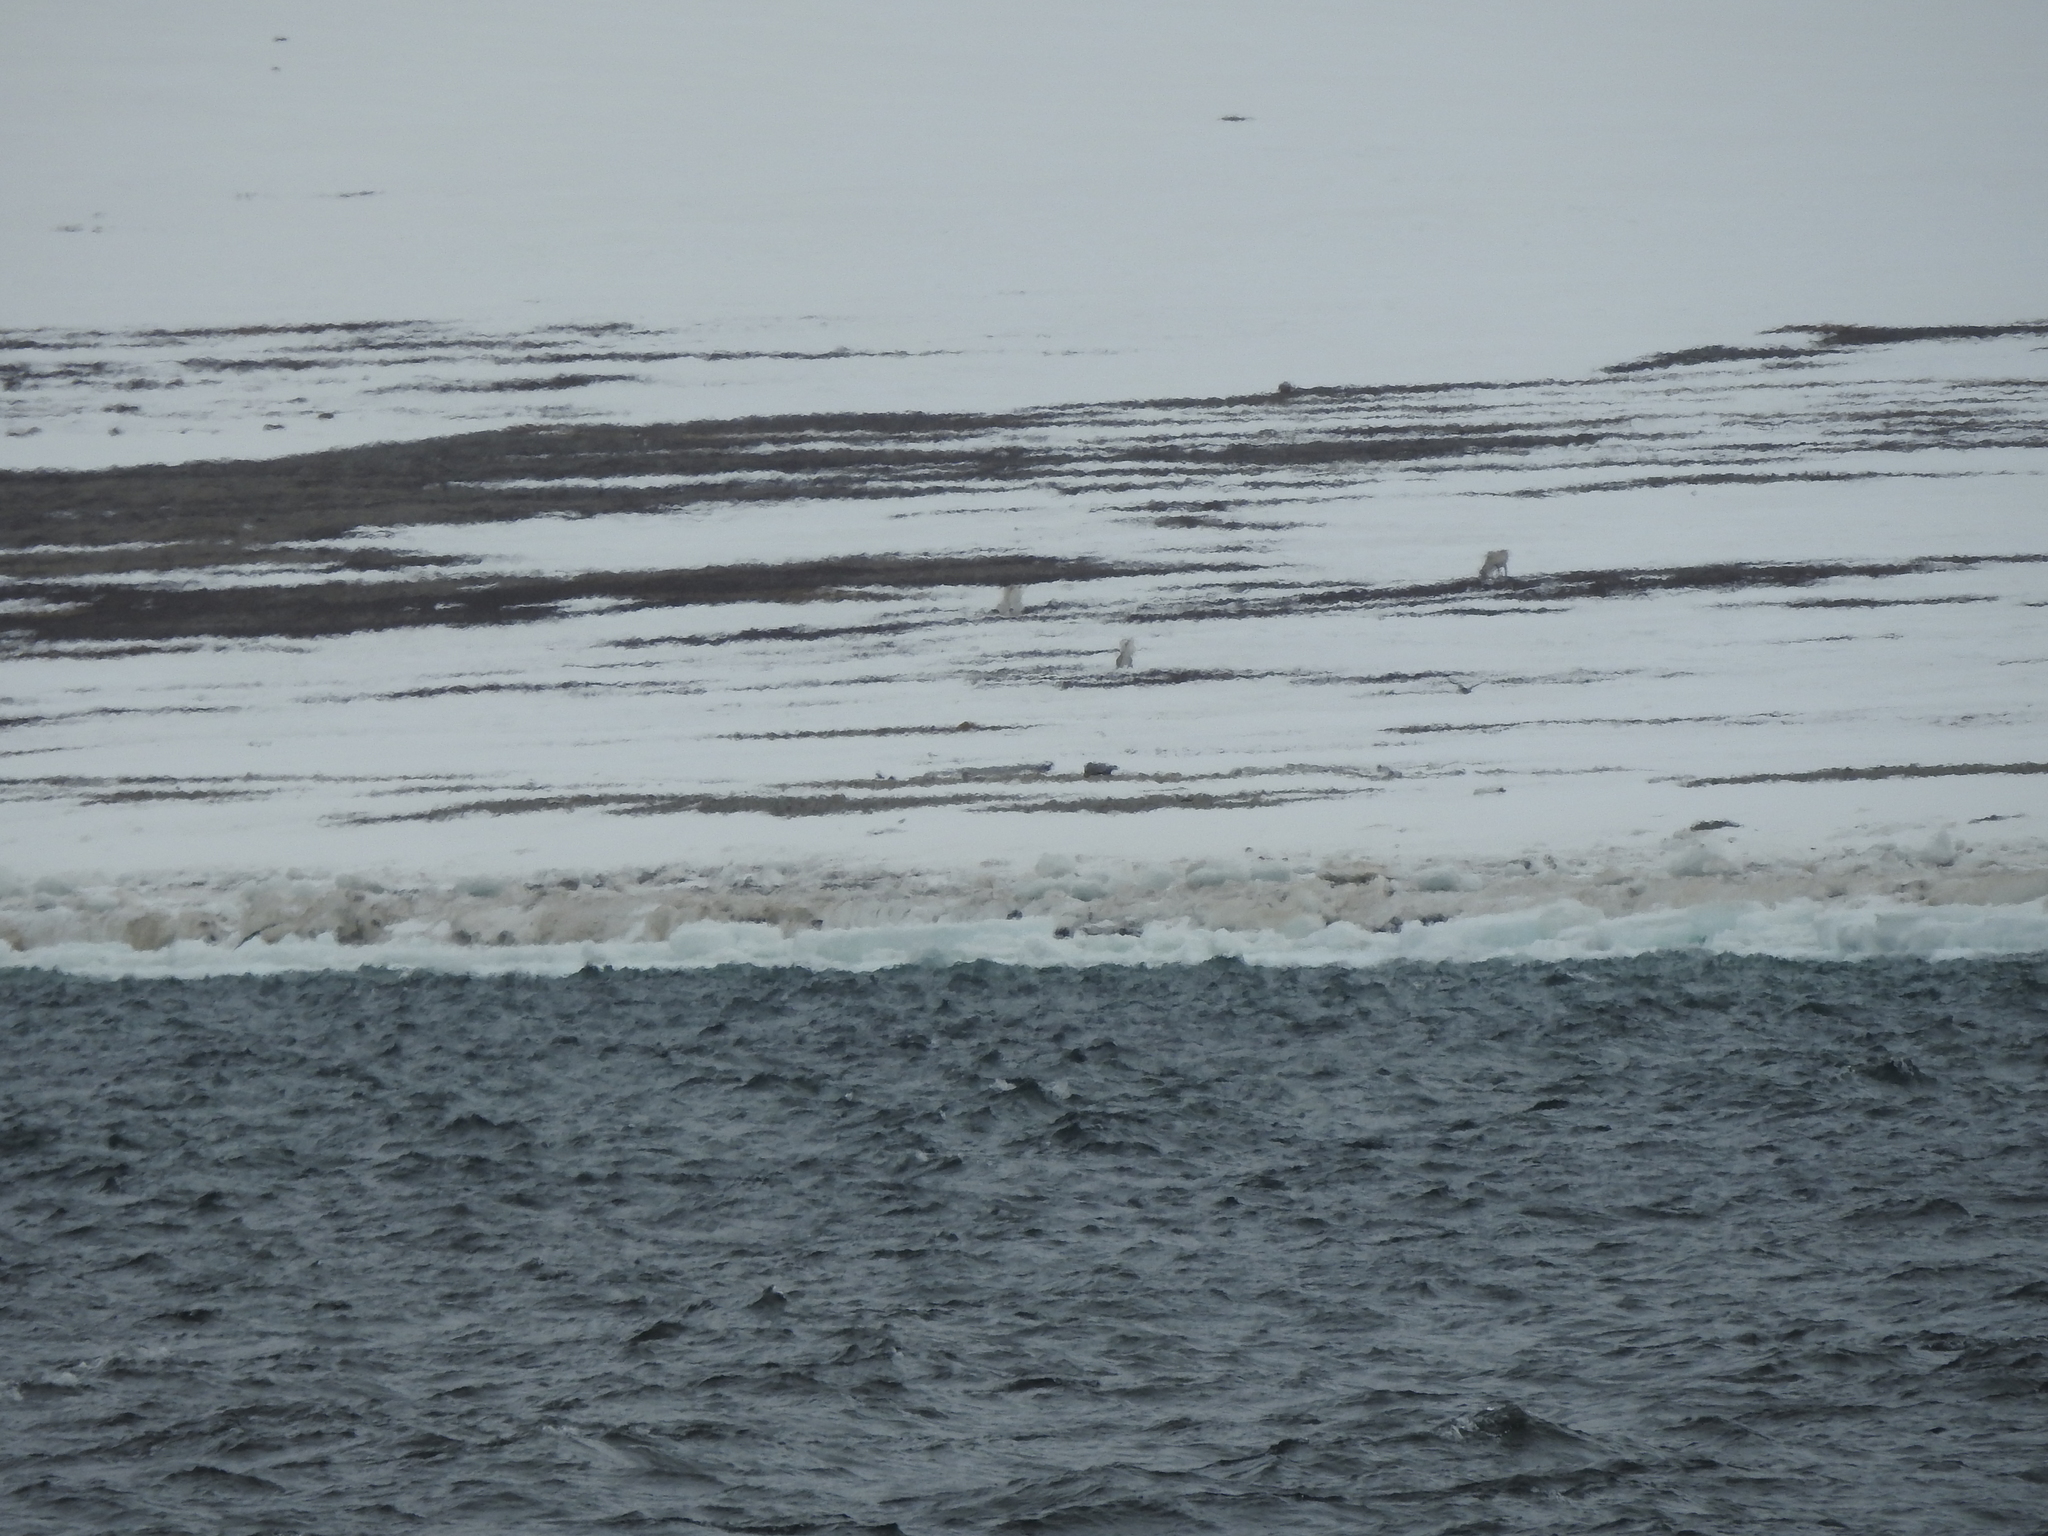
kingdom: Animalia
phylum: Chordata
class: Mammalia
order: Artiodactyla
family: Cervidae
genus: Rangifer
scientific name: Rangifer tarandus
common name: Reindeer
